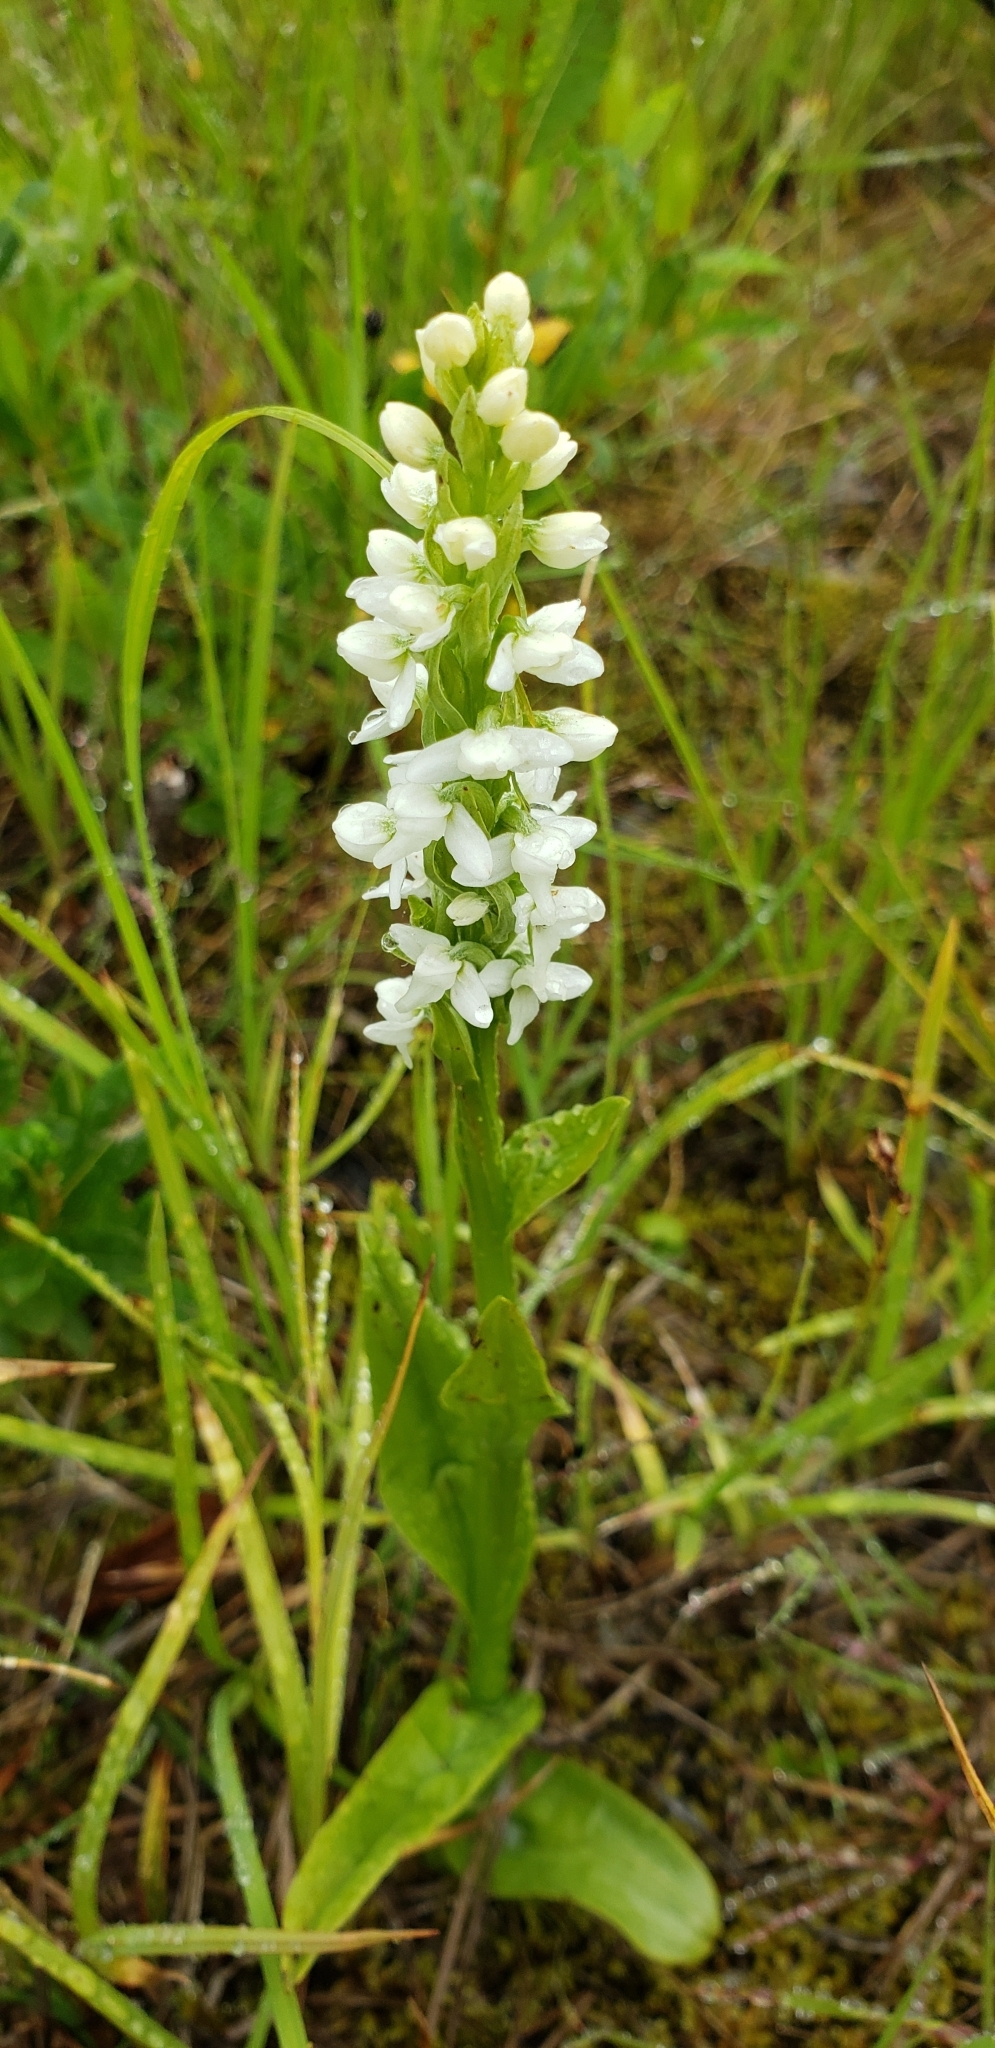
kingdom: Plantae
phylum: Tracheophyta
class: Liliopsida
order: Asparagales
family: Orchidaceae
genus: Platanthera
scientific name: Platanthera dilatata
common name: Bog candles
